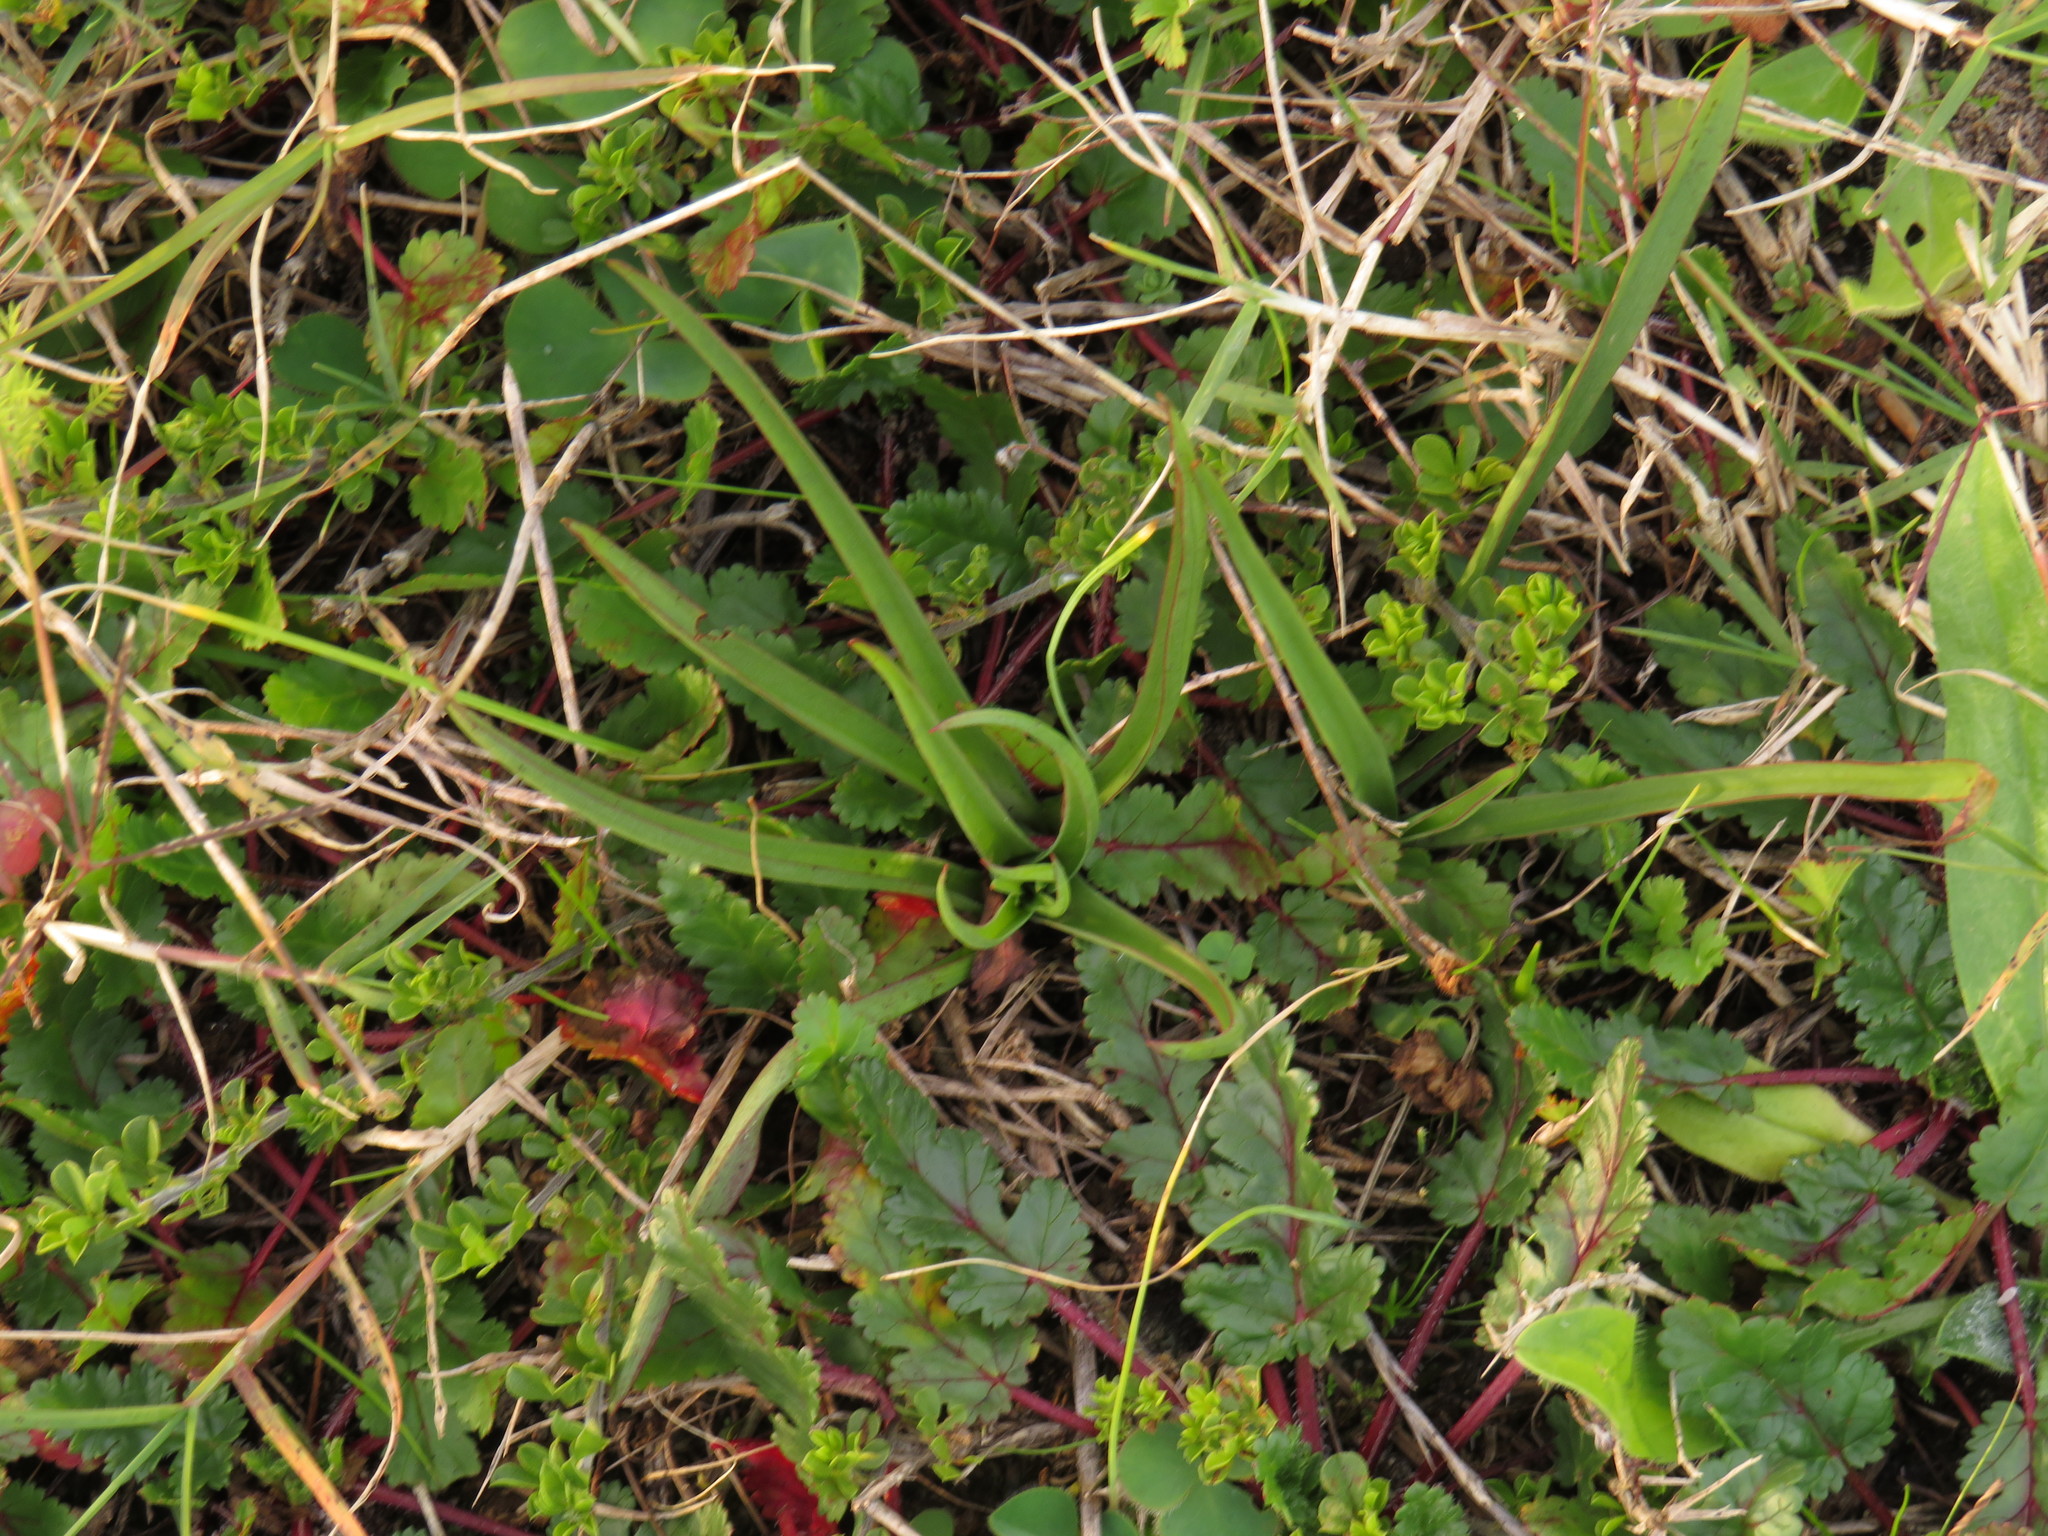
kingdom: Plantae
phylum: Tracheophyta
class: Liliopsida
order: Asparagales
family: Orchidaceae
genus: Disa
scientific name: Disa bracteata
